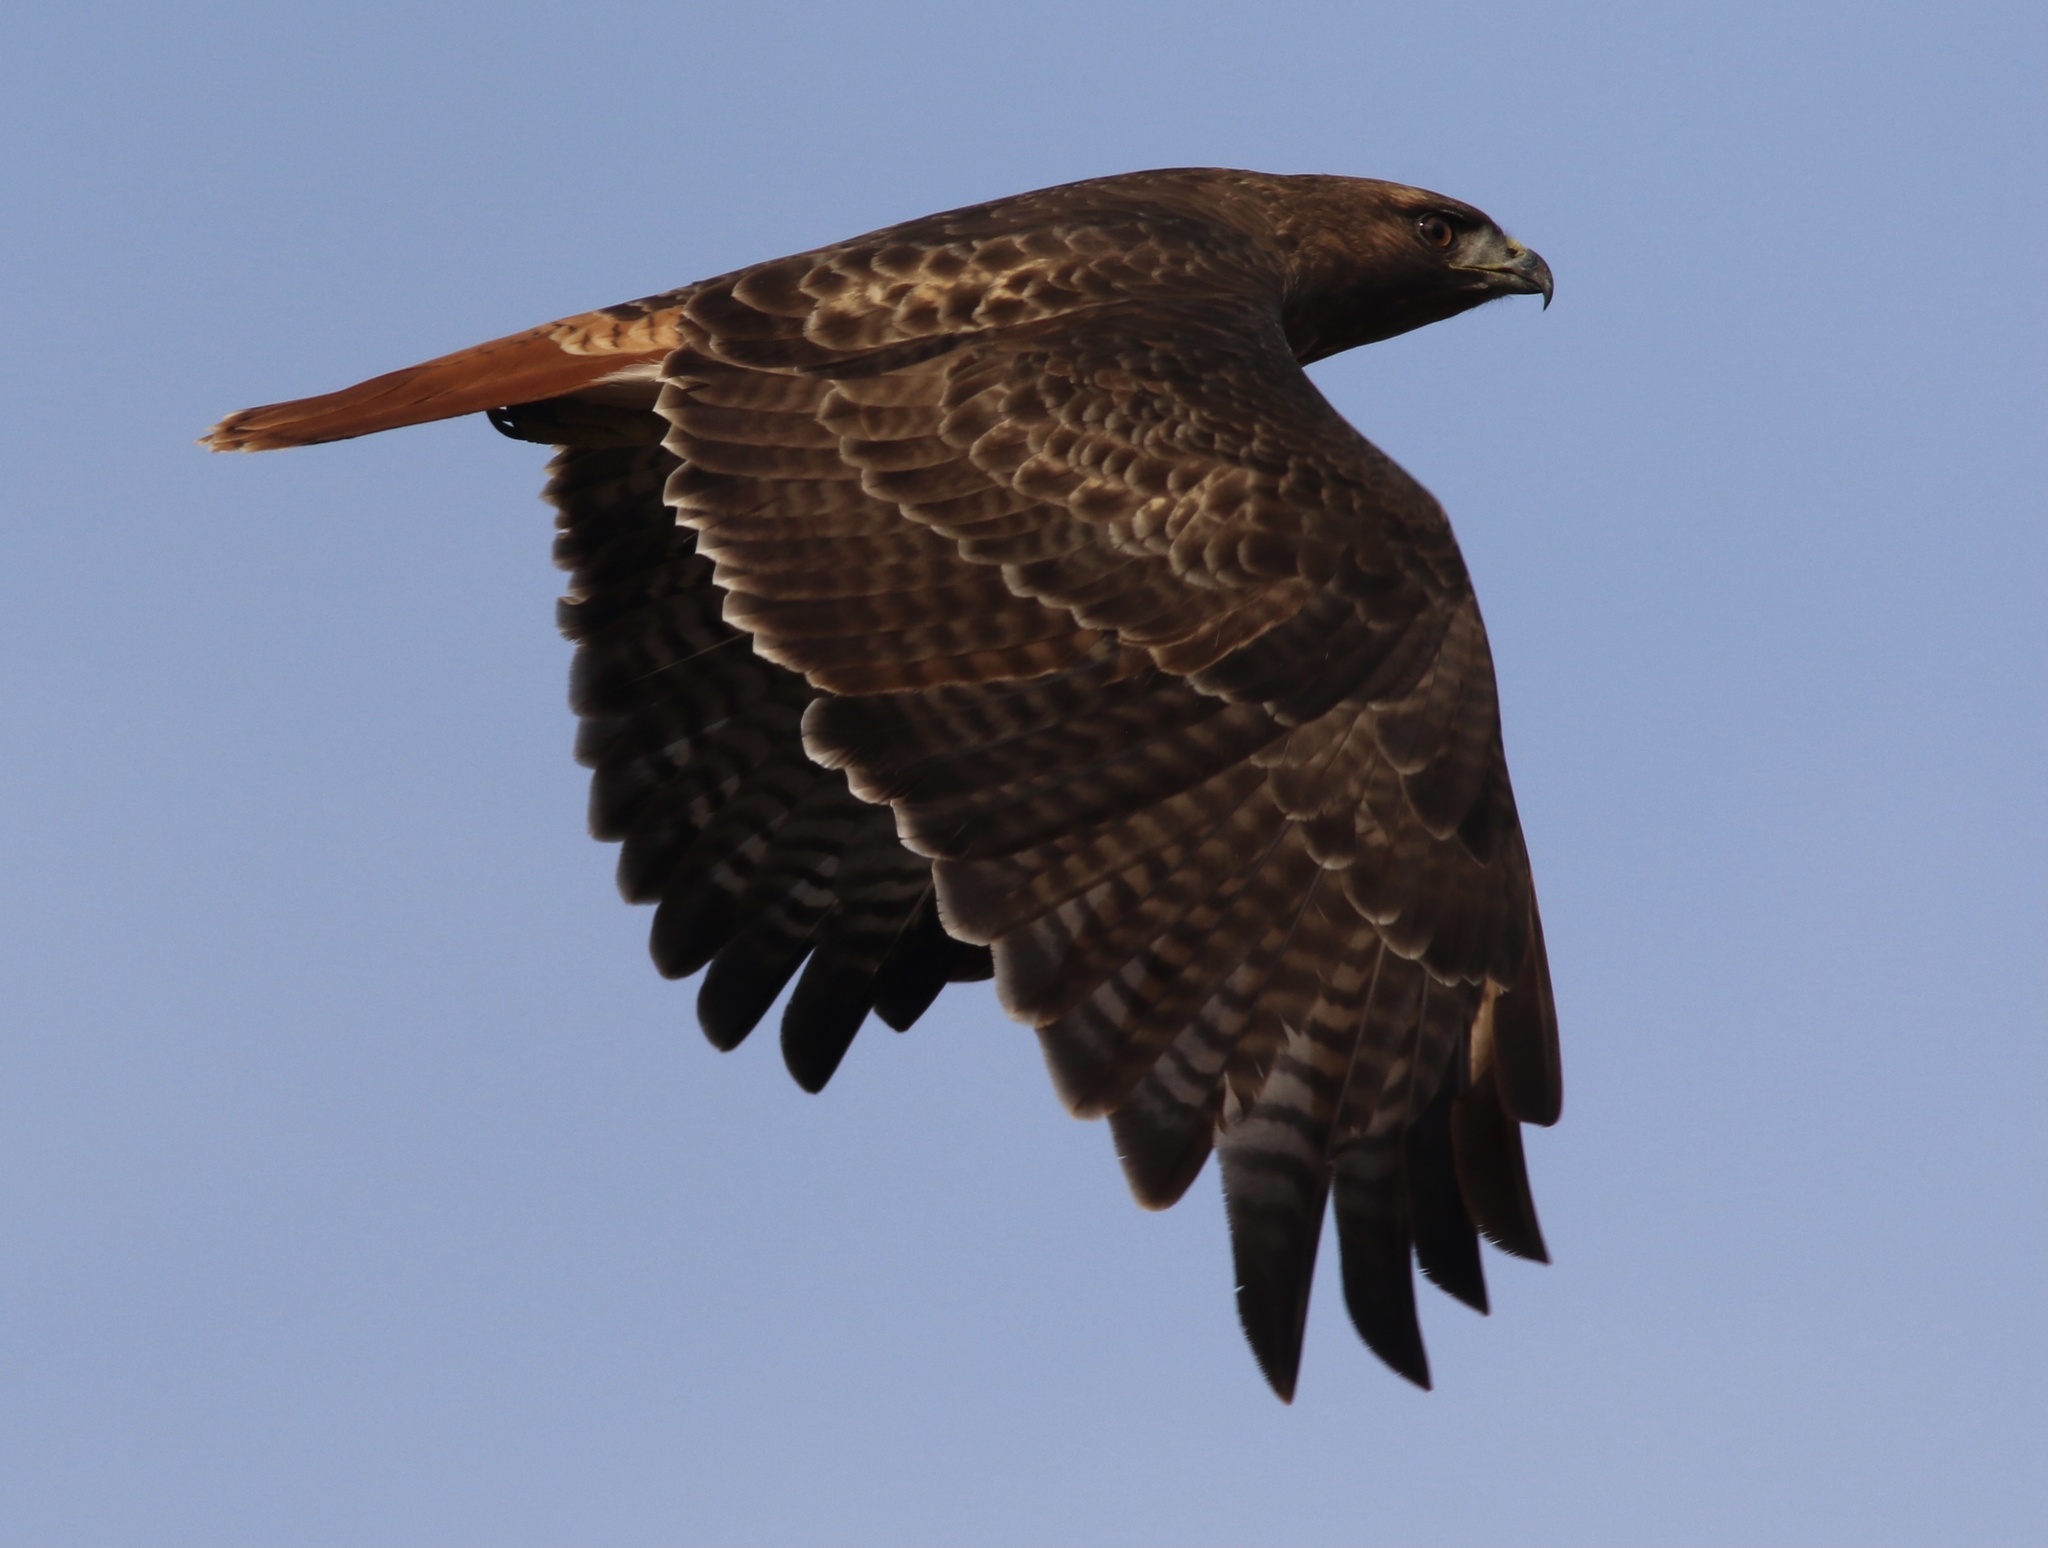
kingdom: Animalia
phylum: Chordata
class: Aves
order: Accipitriformes
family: Accipitridae
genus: Buteo
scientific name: Buteo jamaicensis
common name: Red-tailed hawk
